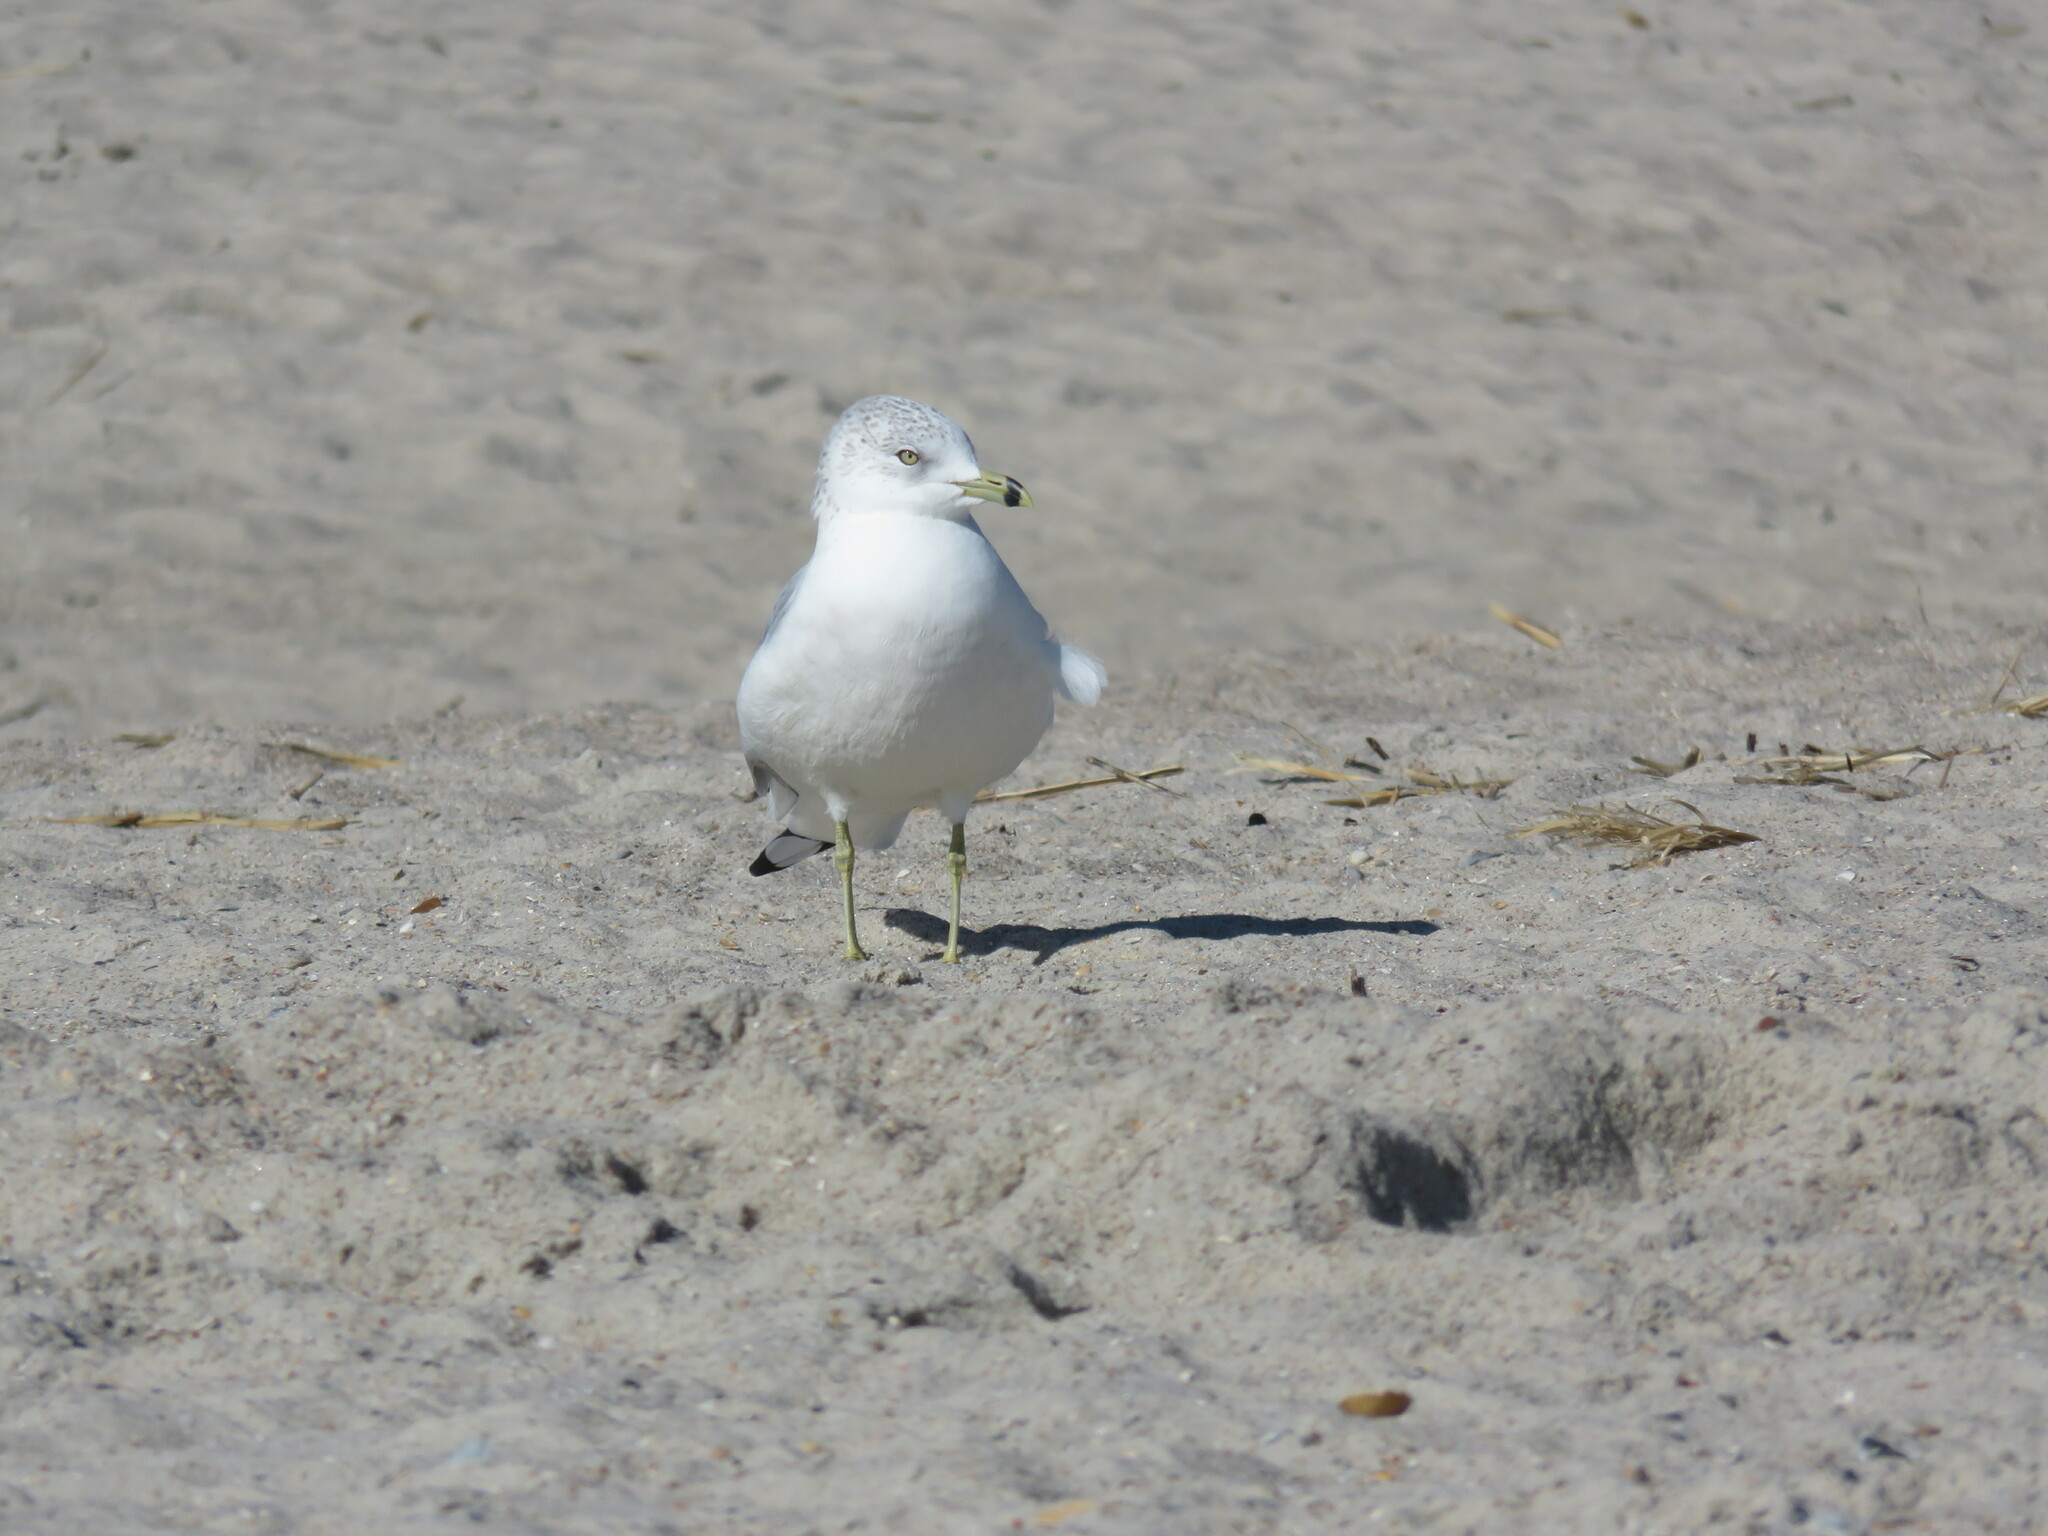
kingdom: Animalia
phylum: Chordata
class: Aves
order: Charadriiformes
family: Laridae
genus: Larus
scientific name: Larus delawarensis
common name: Ring-billed gull
